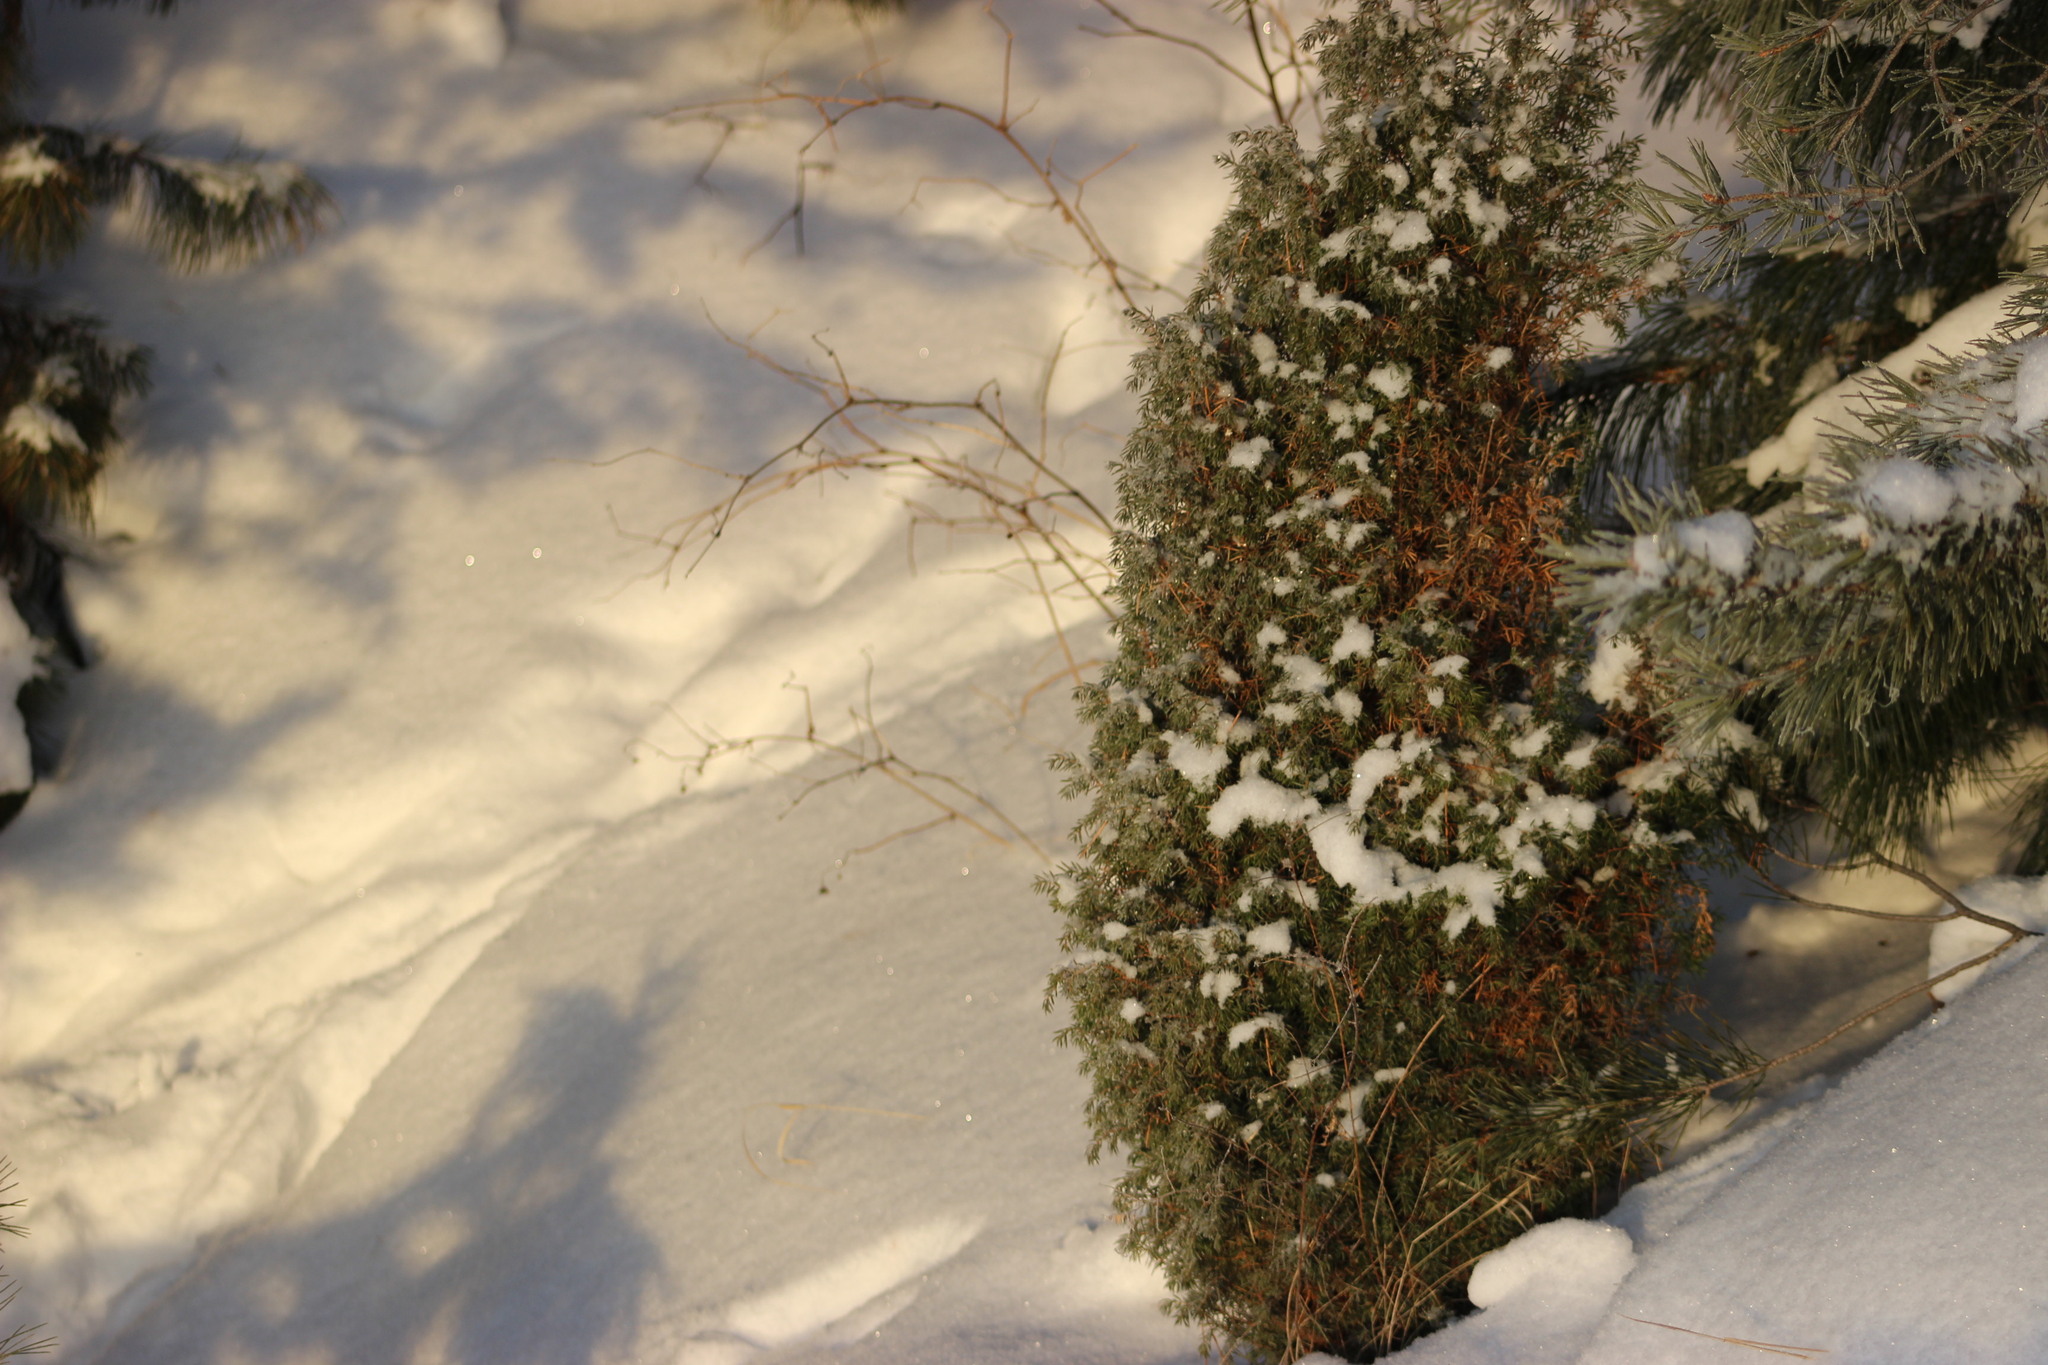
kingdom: Plantae
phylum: Tracheophyta
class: Pinopsida
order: Pinales
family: Cupressaceae
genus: Juniperus
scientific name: Juniperus communis
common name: Common juniper
